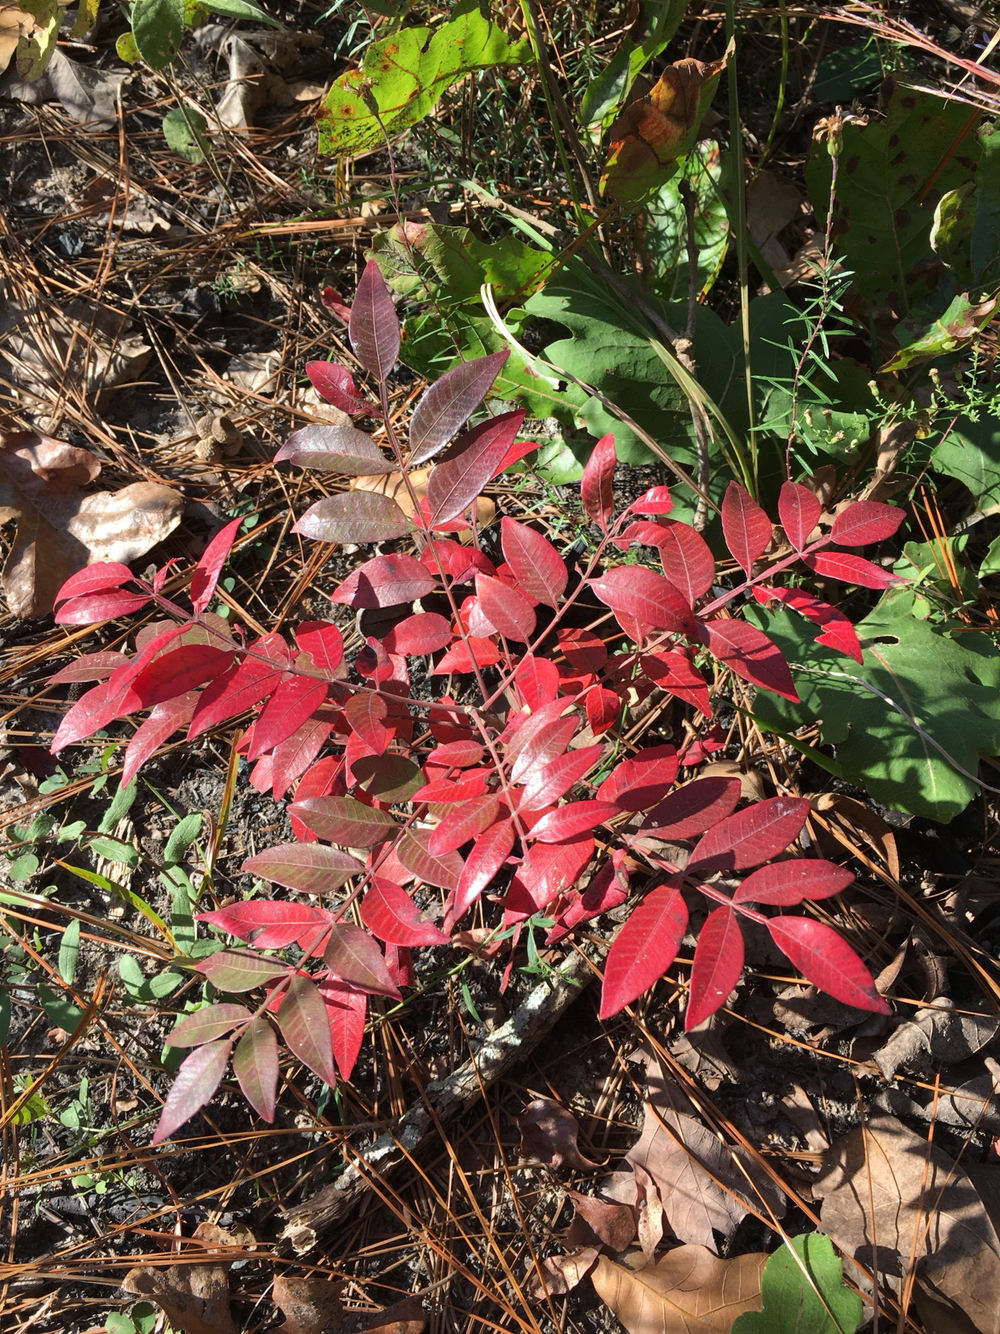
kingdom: Plantae
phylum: Tracheophyta
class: Magnoliopsida
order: Sapindales
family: Anacardiaceae
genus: Rhus
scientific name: Rhus copallina
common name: Shining sumac
